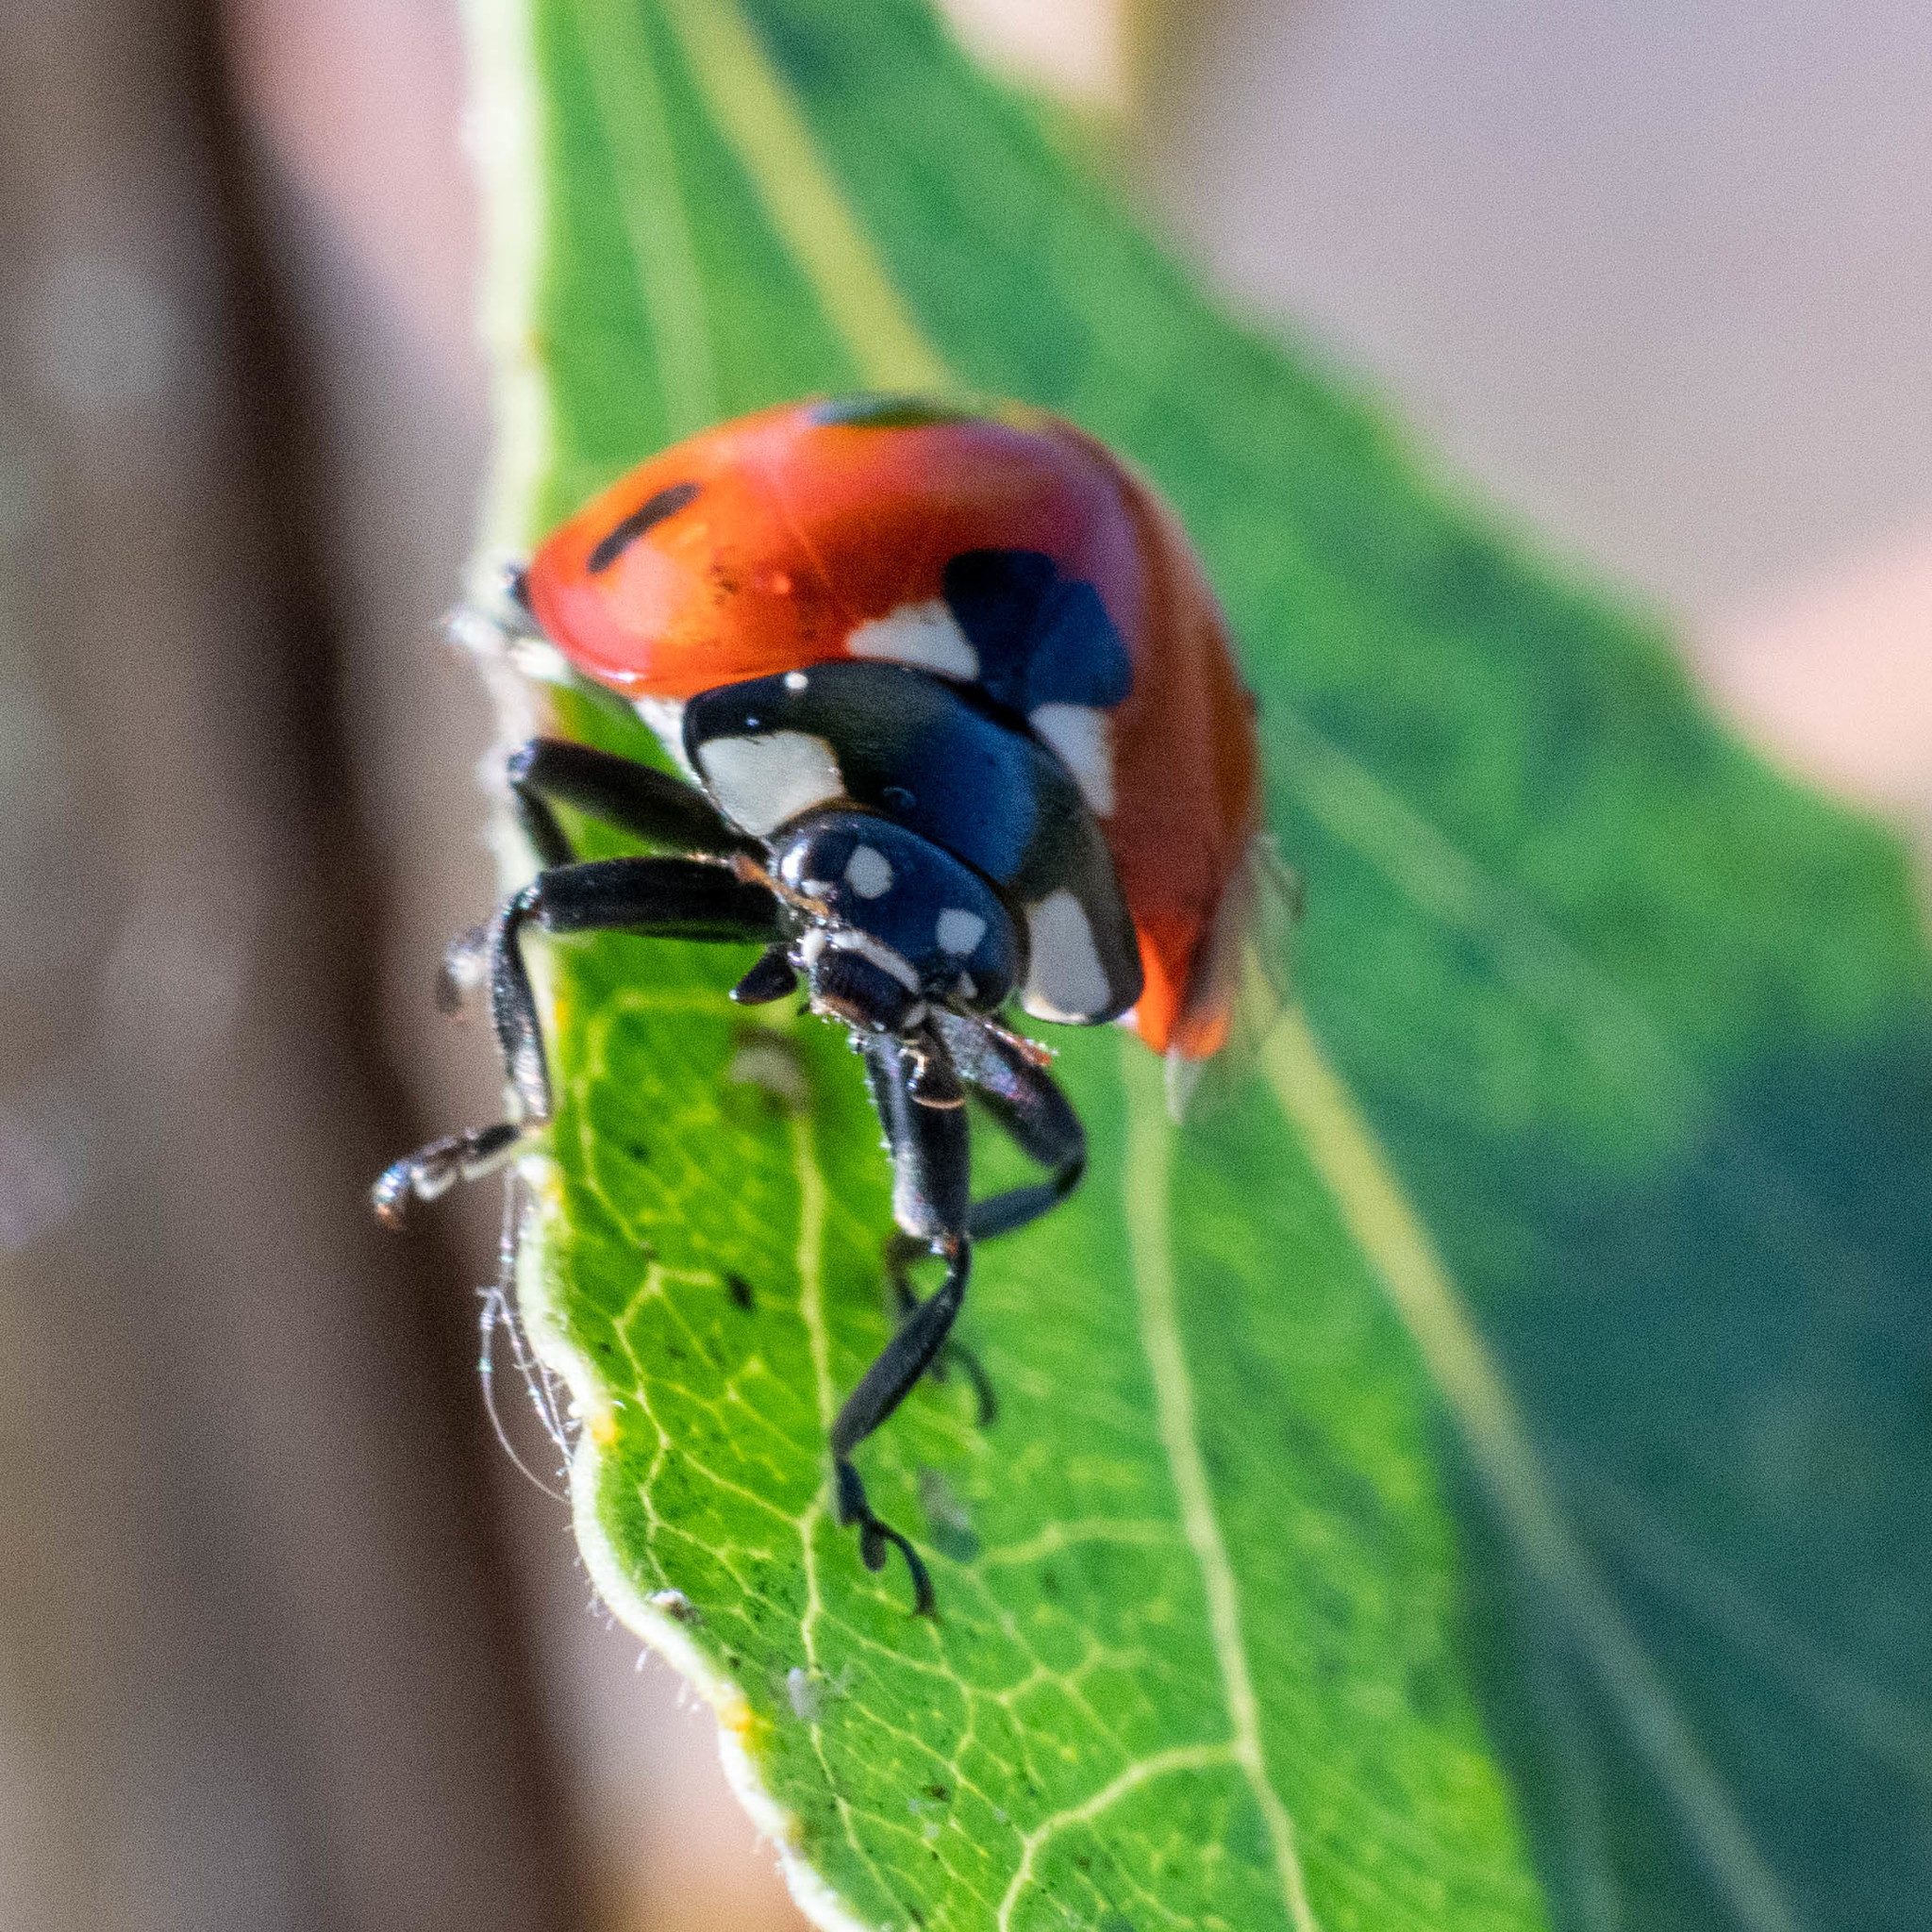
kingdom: Animalia
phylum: Arthropoda
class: Insecta
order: Coleoptera
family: Coccinellidae
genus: Coccinella
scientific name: Coccinella septempunctata
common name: Sevenspotted lady beetle
